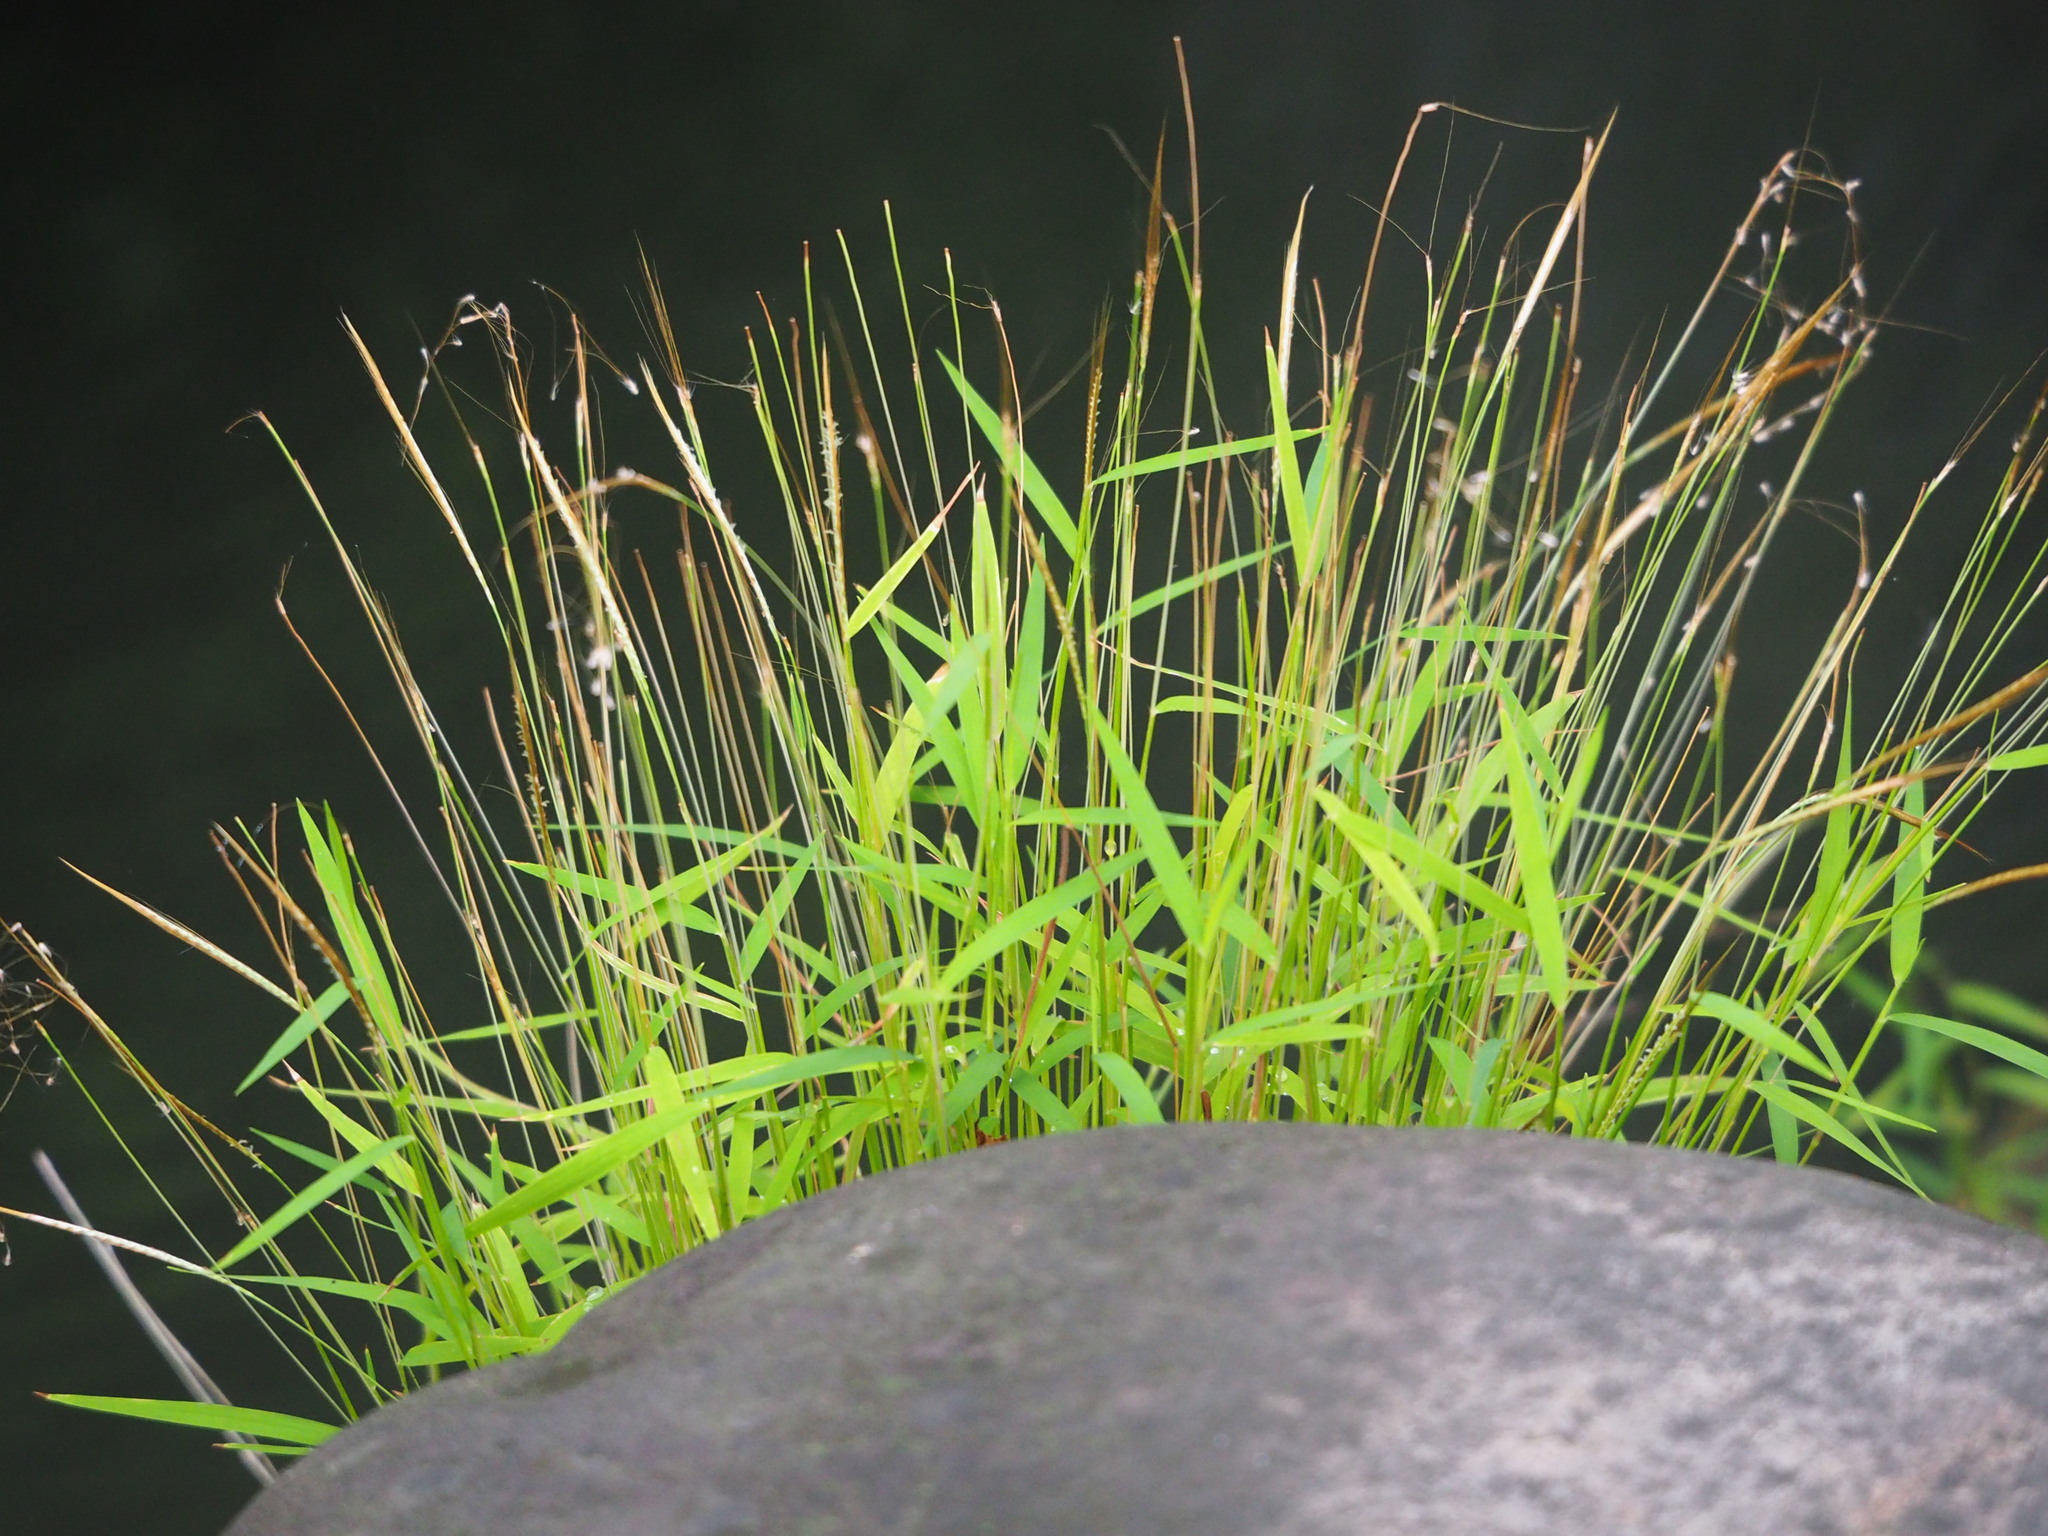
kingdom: Plantae
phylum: Tracheophyta
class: Liliopsida
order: Poales
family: Poaceae
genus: Pogonatherum
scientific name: Pogonatherum crinitum
